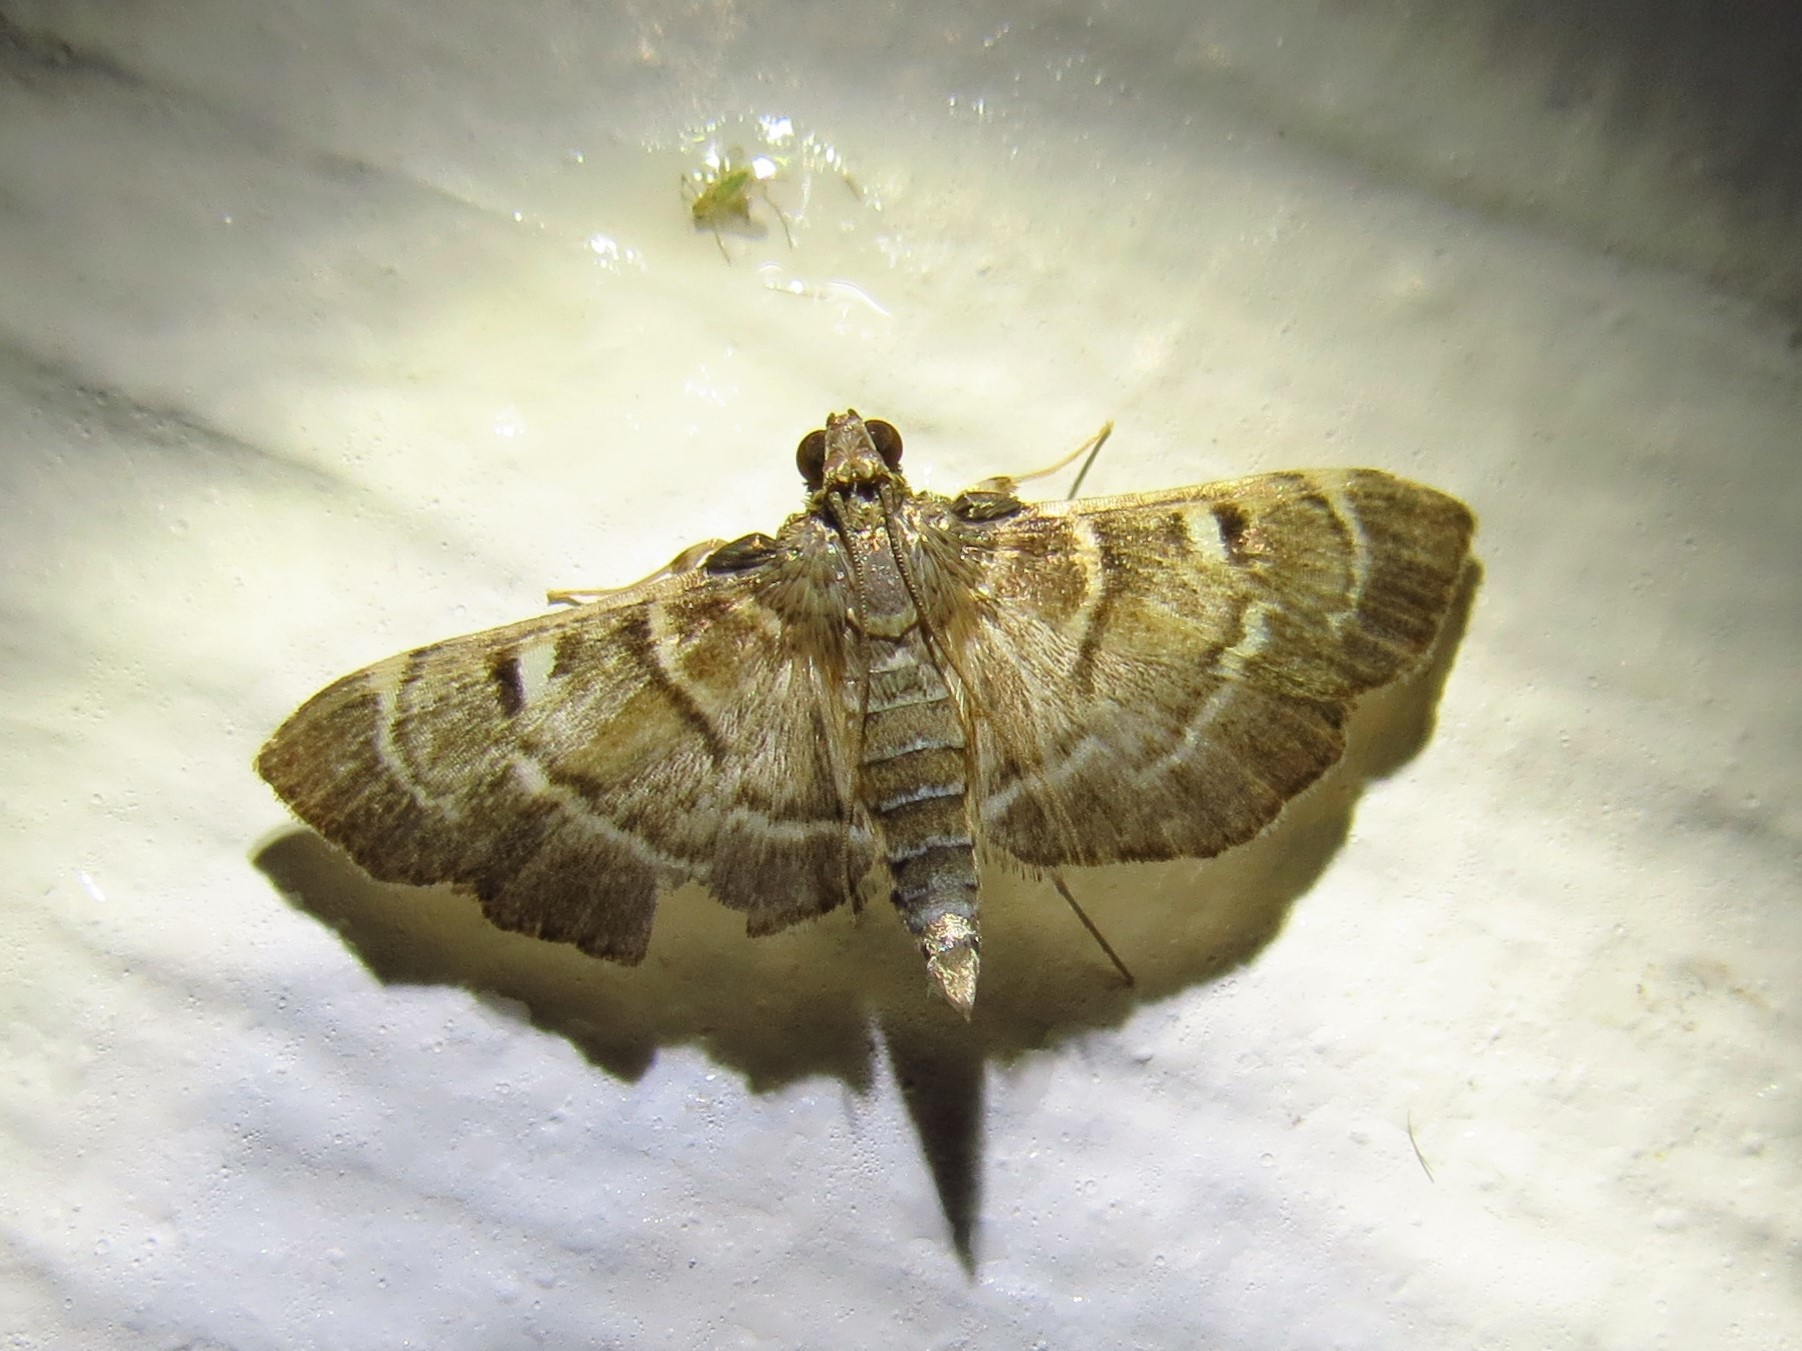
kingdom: Animalia
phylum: Arthropoda
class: Insecta
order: Lepidoptera
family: Crambidae
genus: Cryptobotys
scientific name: Cryptobotys zoilusalis
